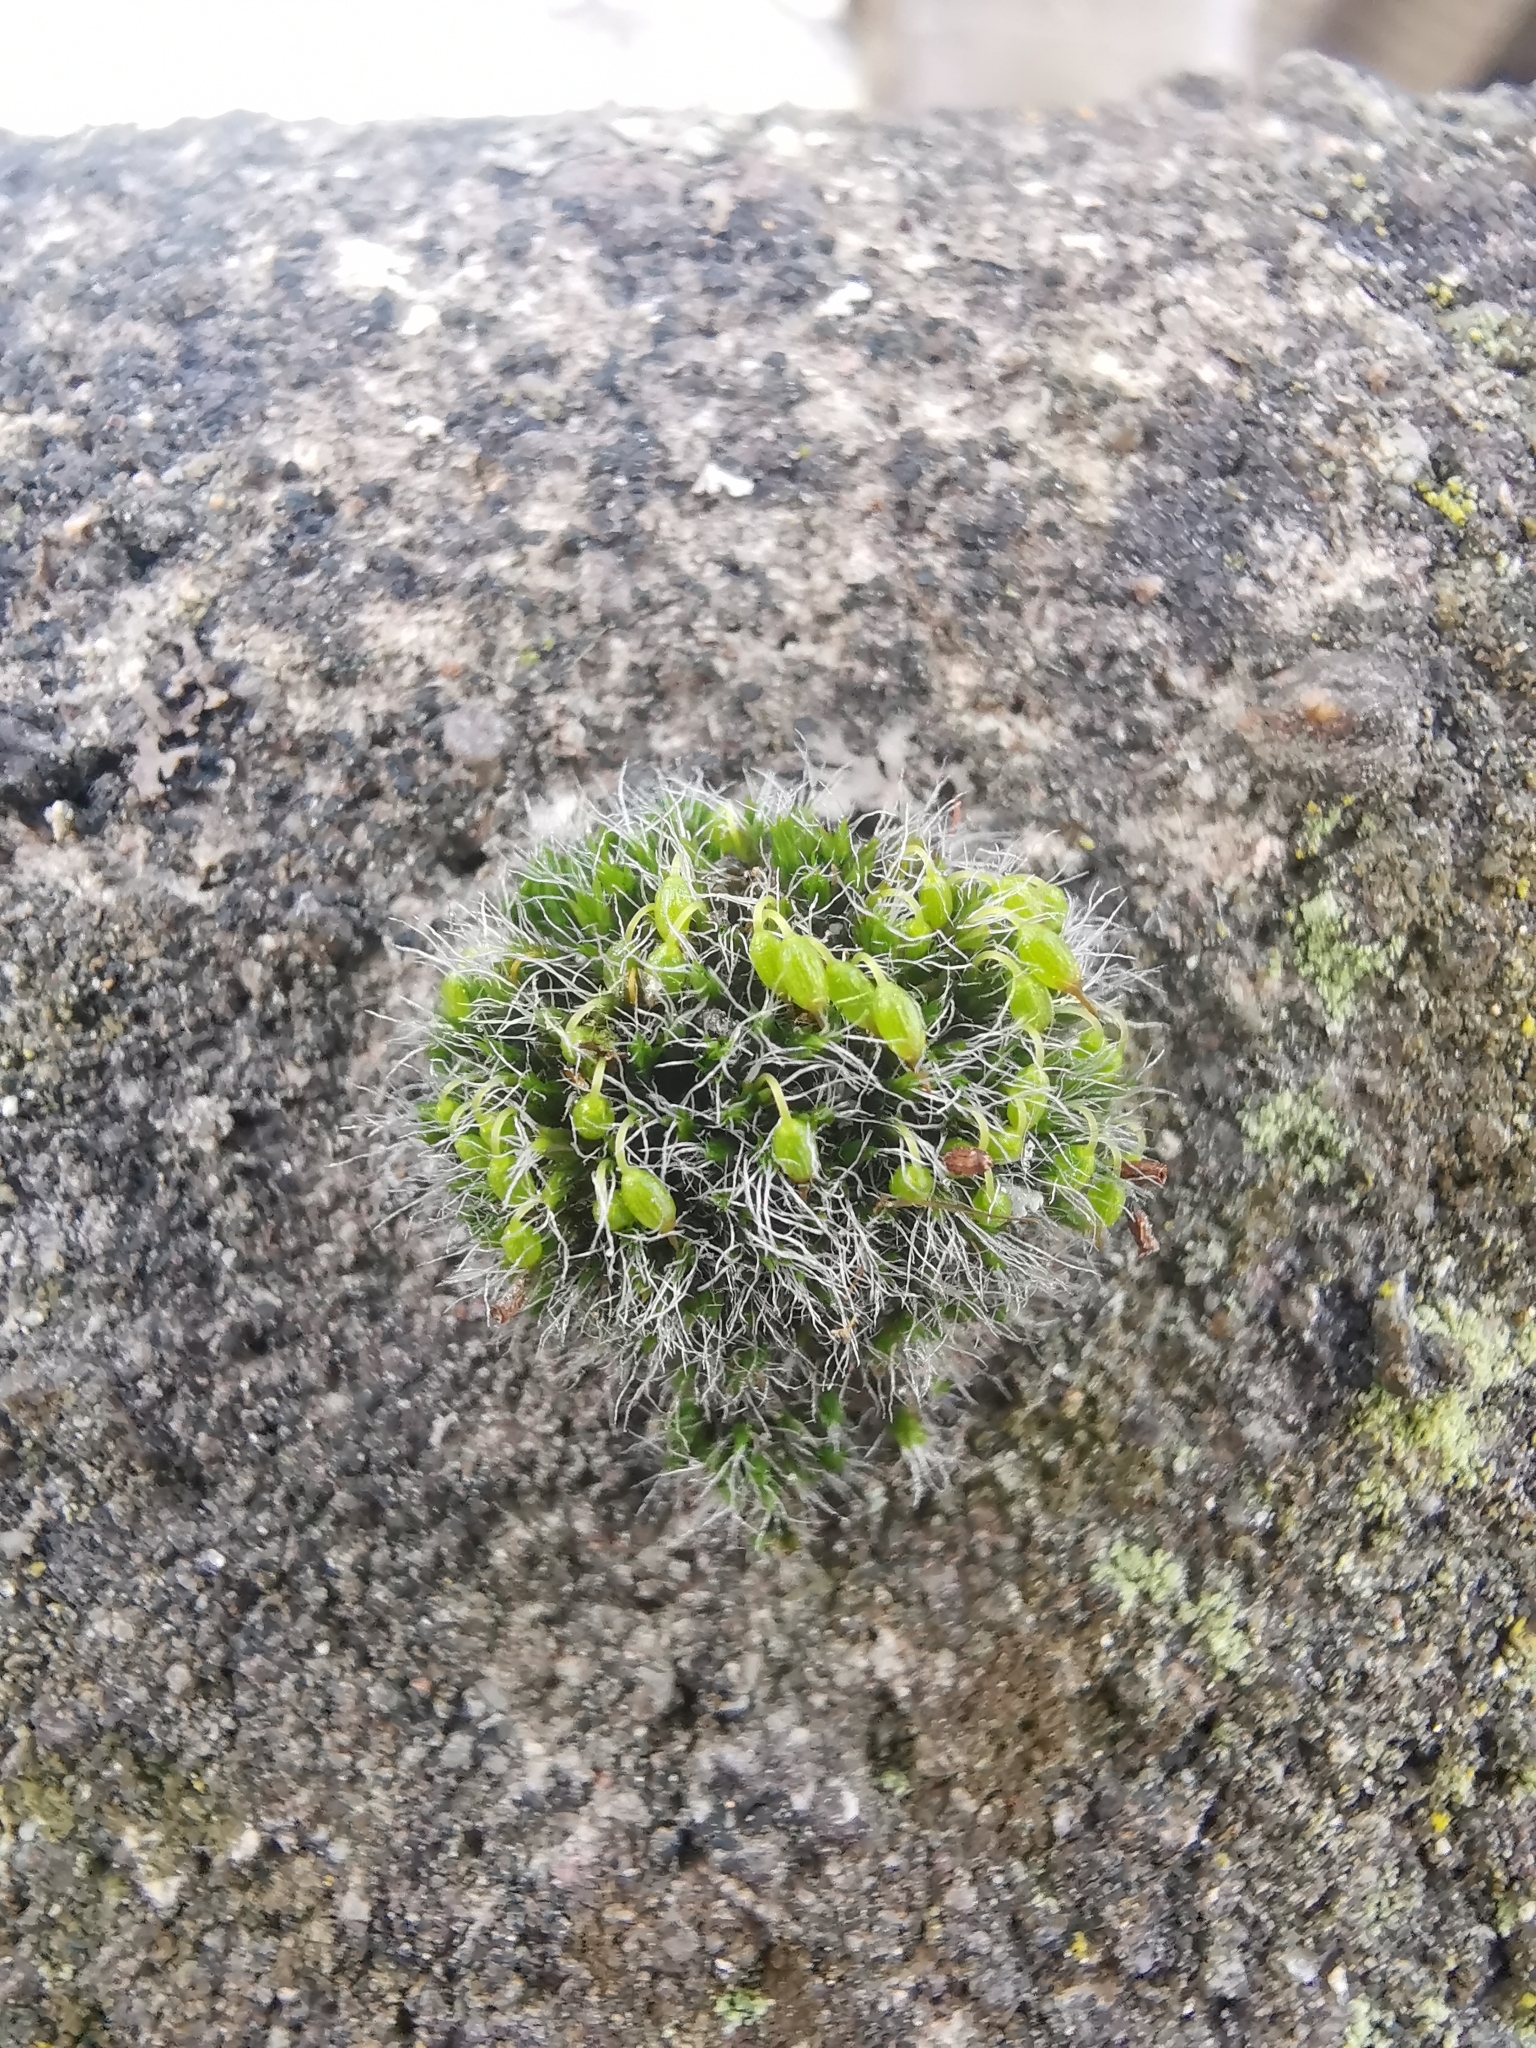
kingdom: Plantae
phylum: Bryophyta
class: Bryopsida
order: Grimmiales
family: Grimmiaceae
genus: Grimmia
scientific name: Grimmia pulvinata
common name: Grey-cushioned grimmia
